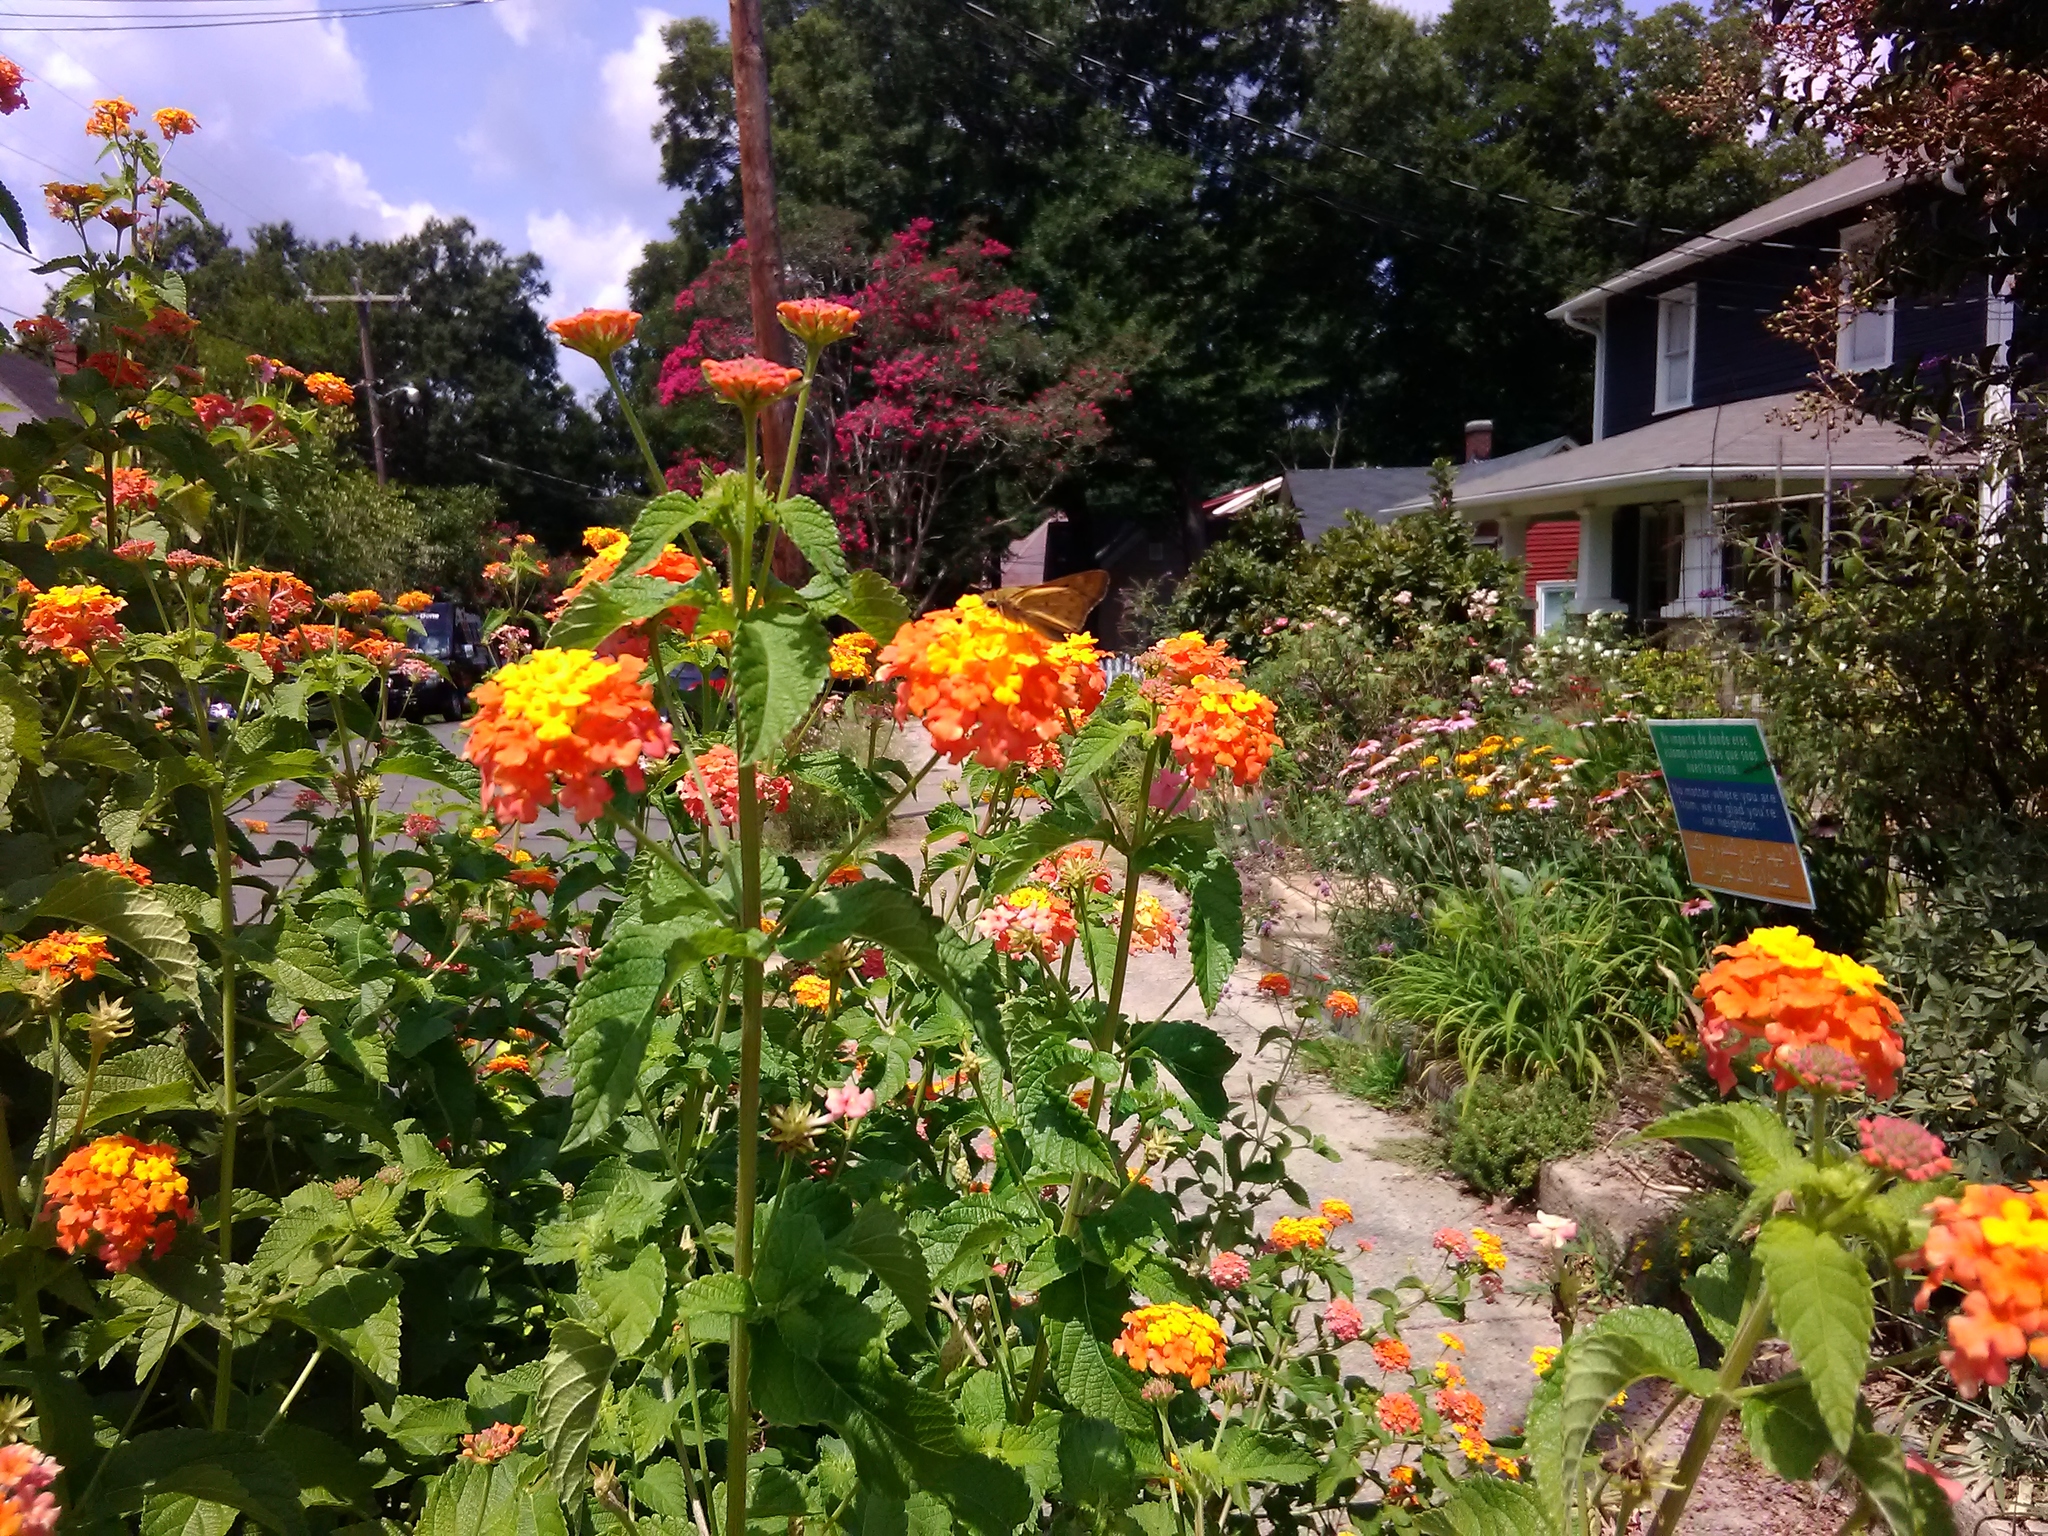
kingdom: Animalia
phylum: Arthropoda
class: Insecta
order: Lepidoptera
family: Hesperiidae
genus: Hylephila
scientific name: Hylephila phyleus
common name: Fiery skipper
